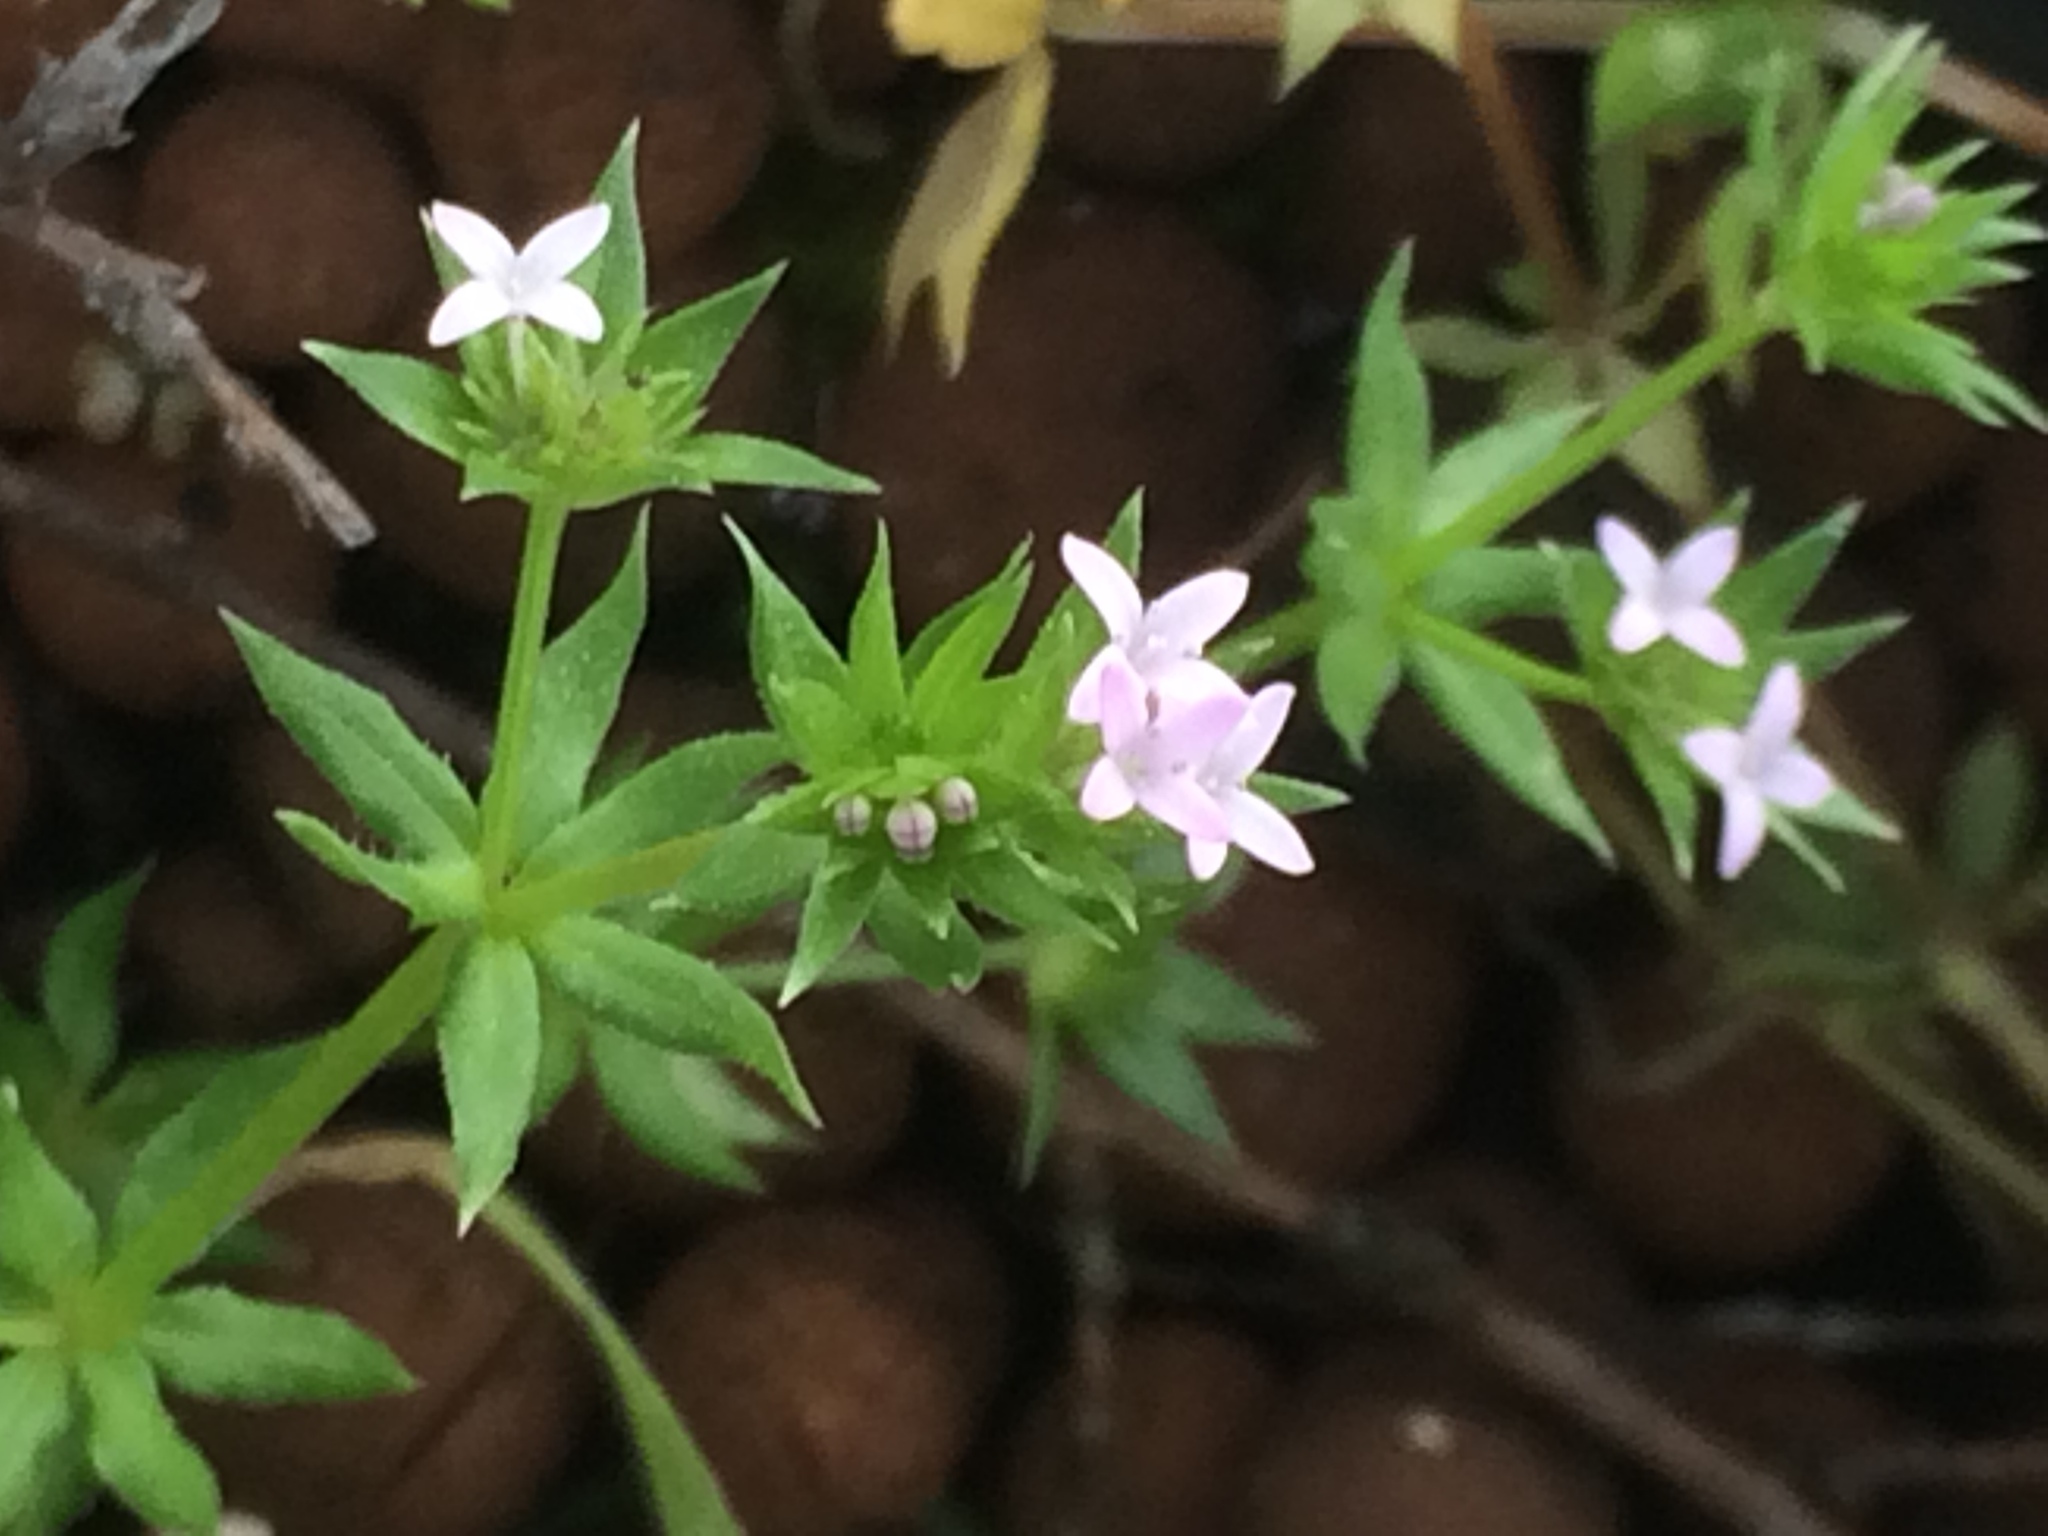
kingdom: Plantae
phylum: Tracheophyta
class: Magnoliopsida
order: Gentianales
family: Rubiaceae
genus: Sherardia
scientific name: Sherardia arvensis
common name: Field madder
